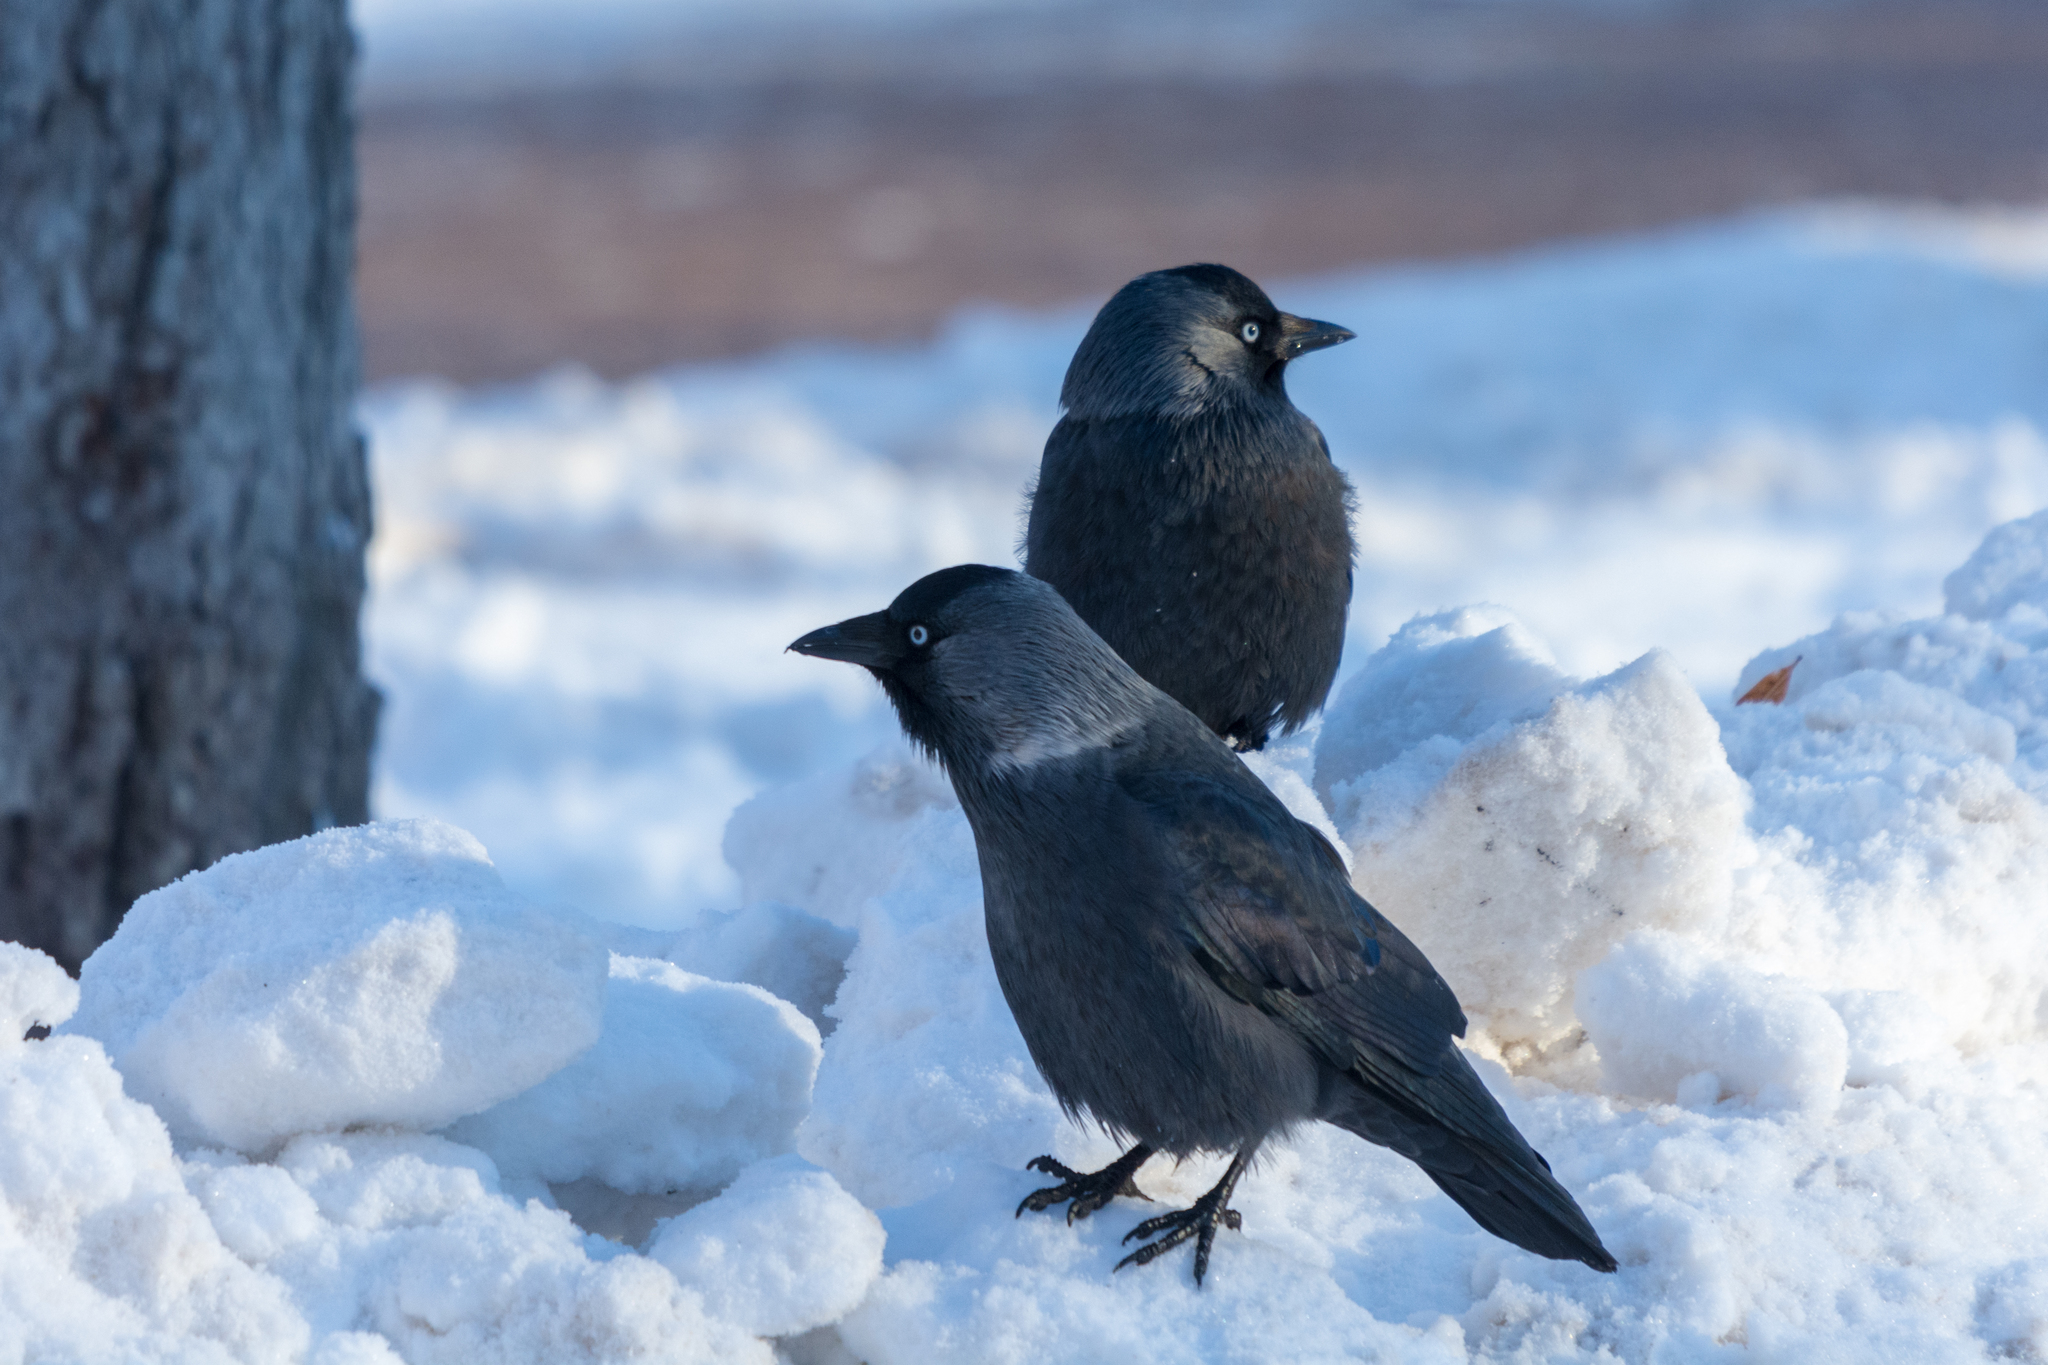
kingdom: Animalia
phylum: Chordata
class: Aves
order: Passeriformes
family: Corvidae
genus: Coloeus
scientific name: Coloeus monedula
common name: Western jackdaw
